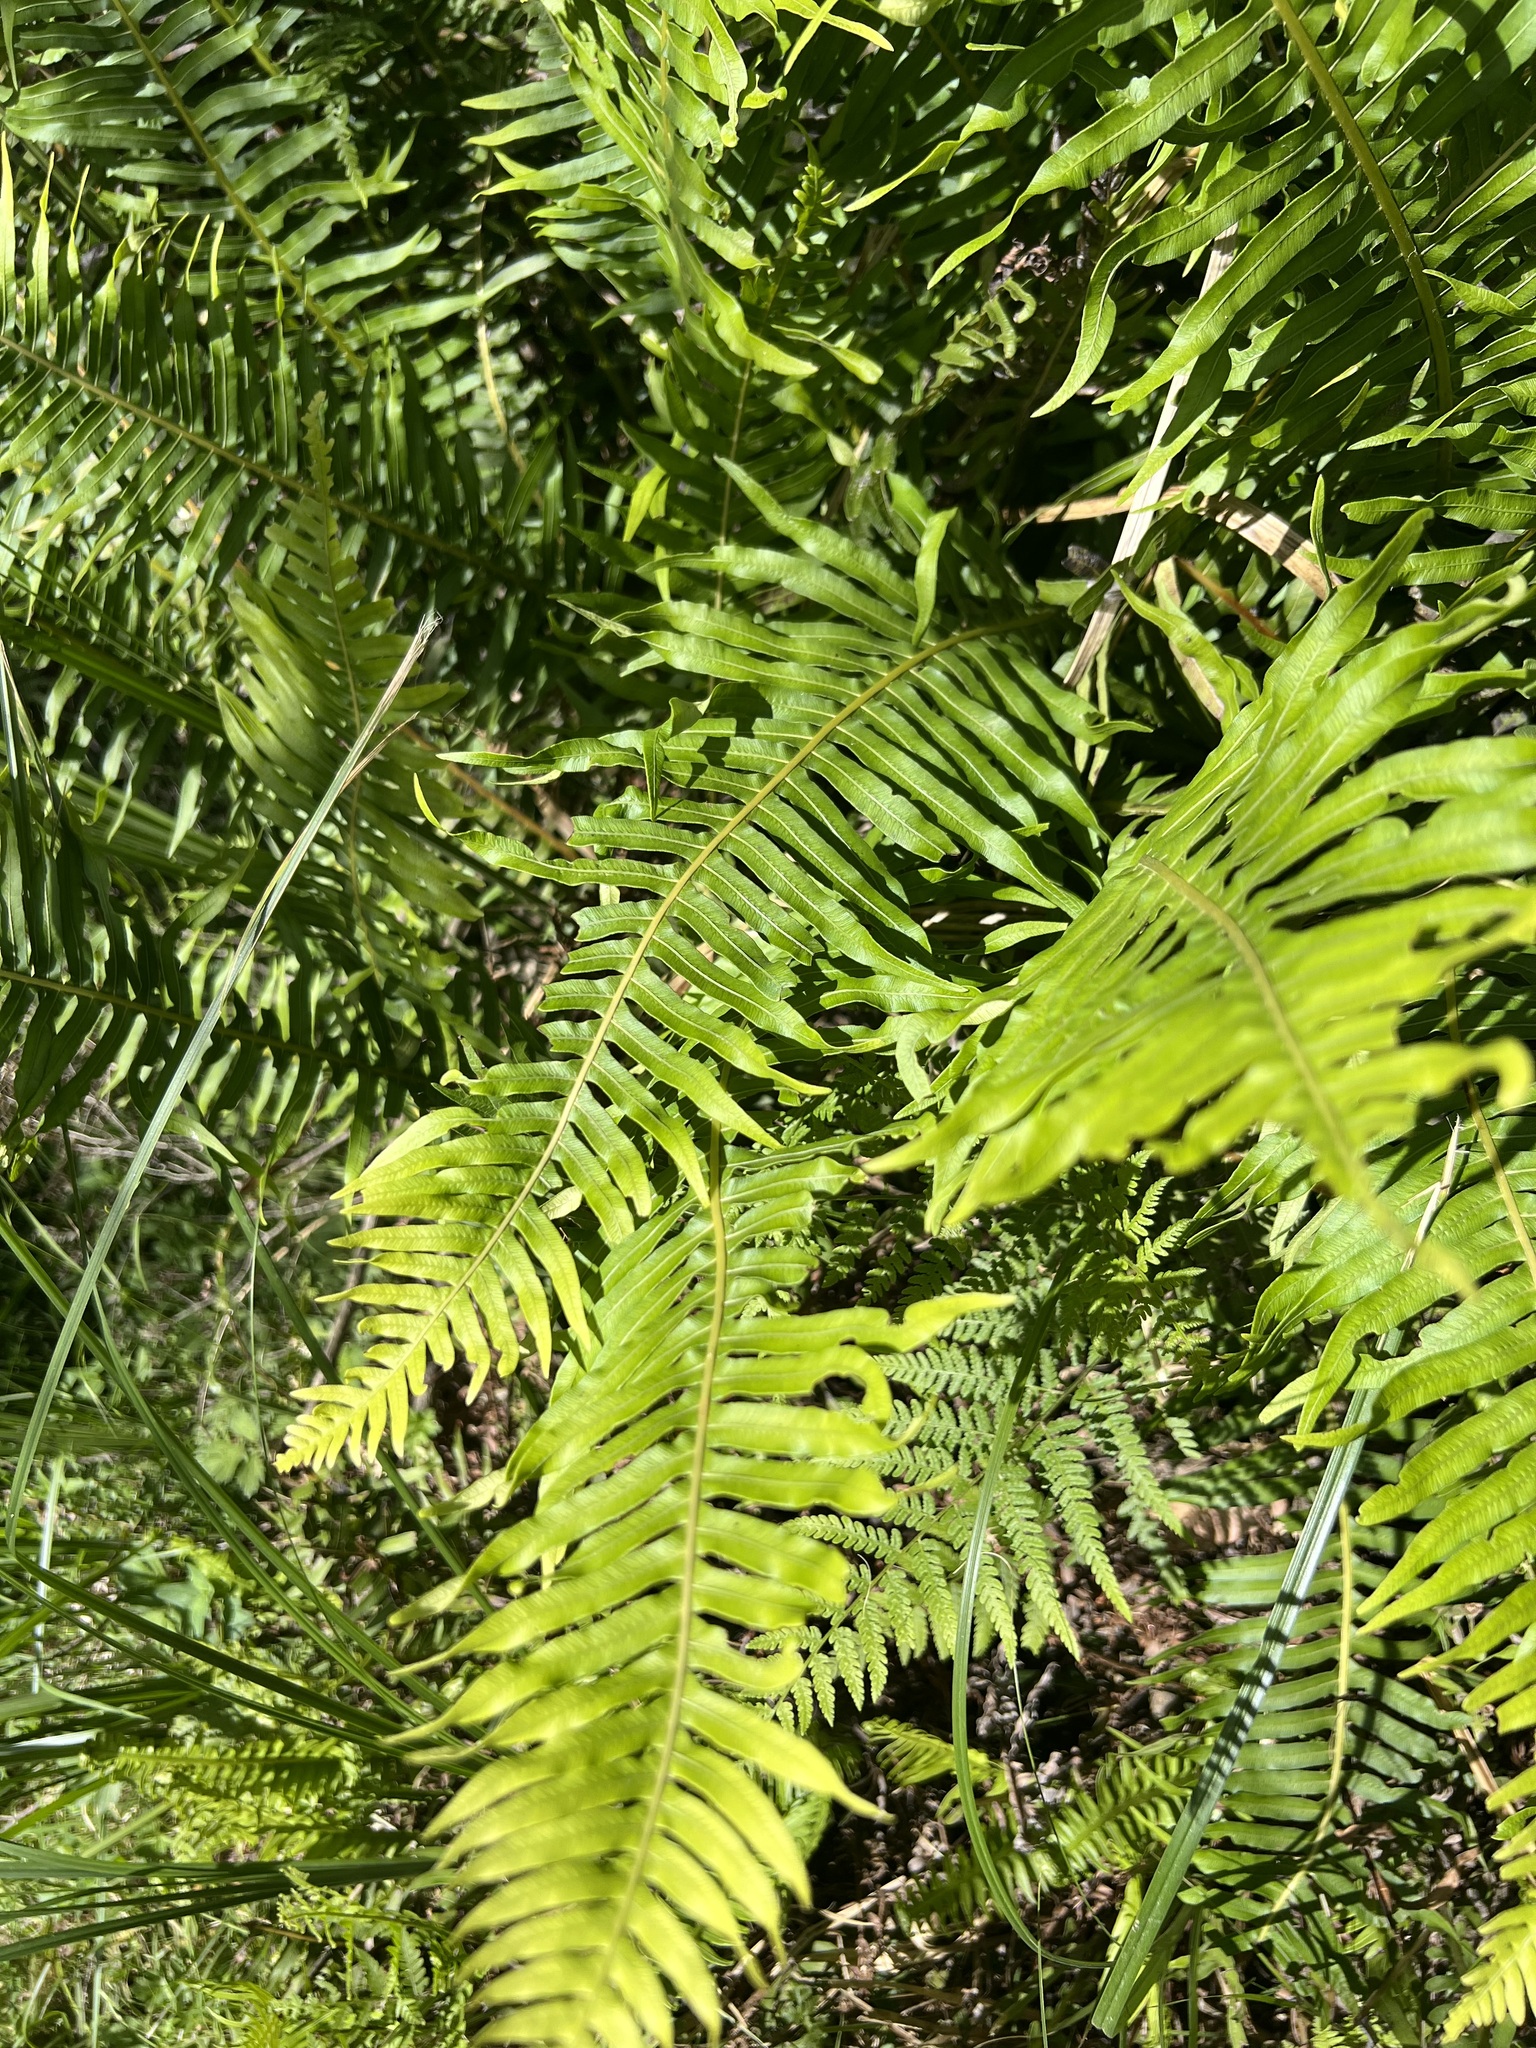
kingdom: Plantae
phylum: Tracheophyta
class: Polypodiopsida
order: Polypodiales
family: Blechnaceae
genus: Lomaria
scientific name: Lomaria nuda
